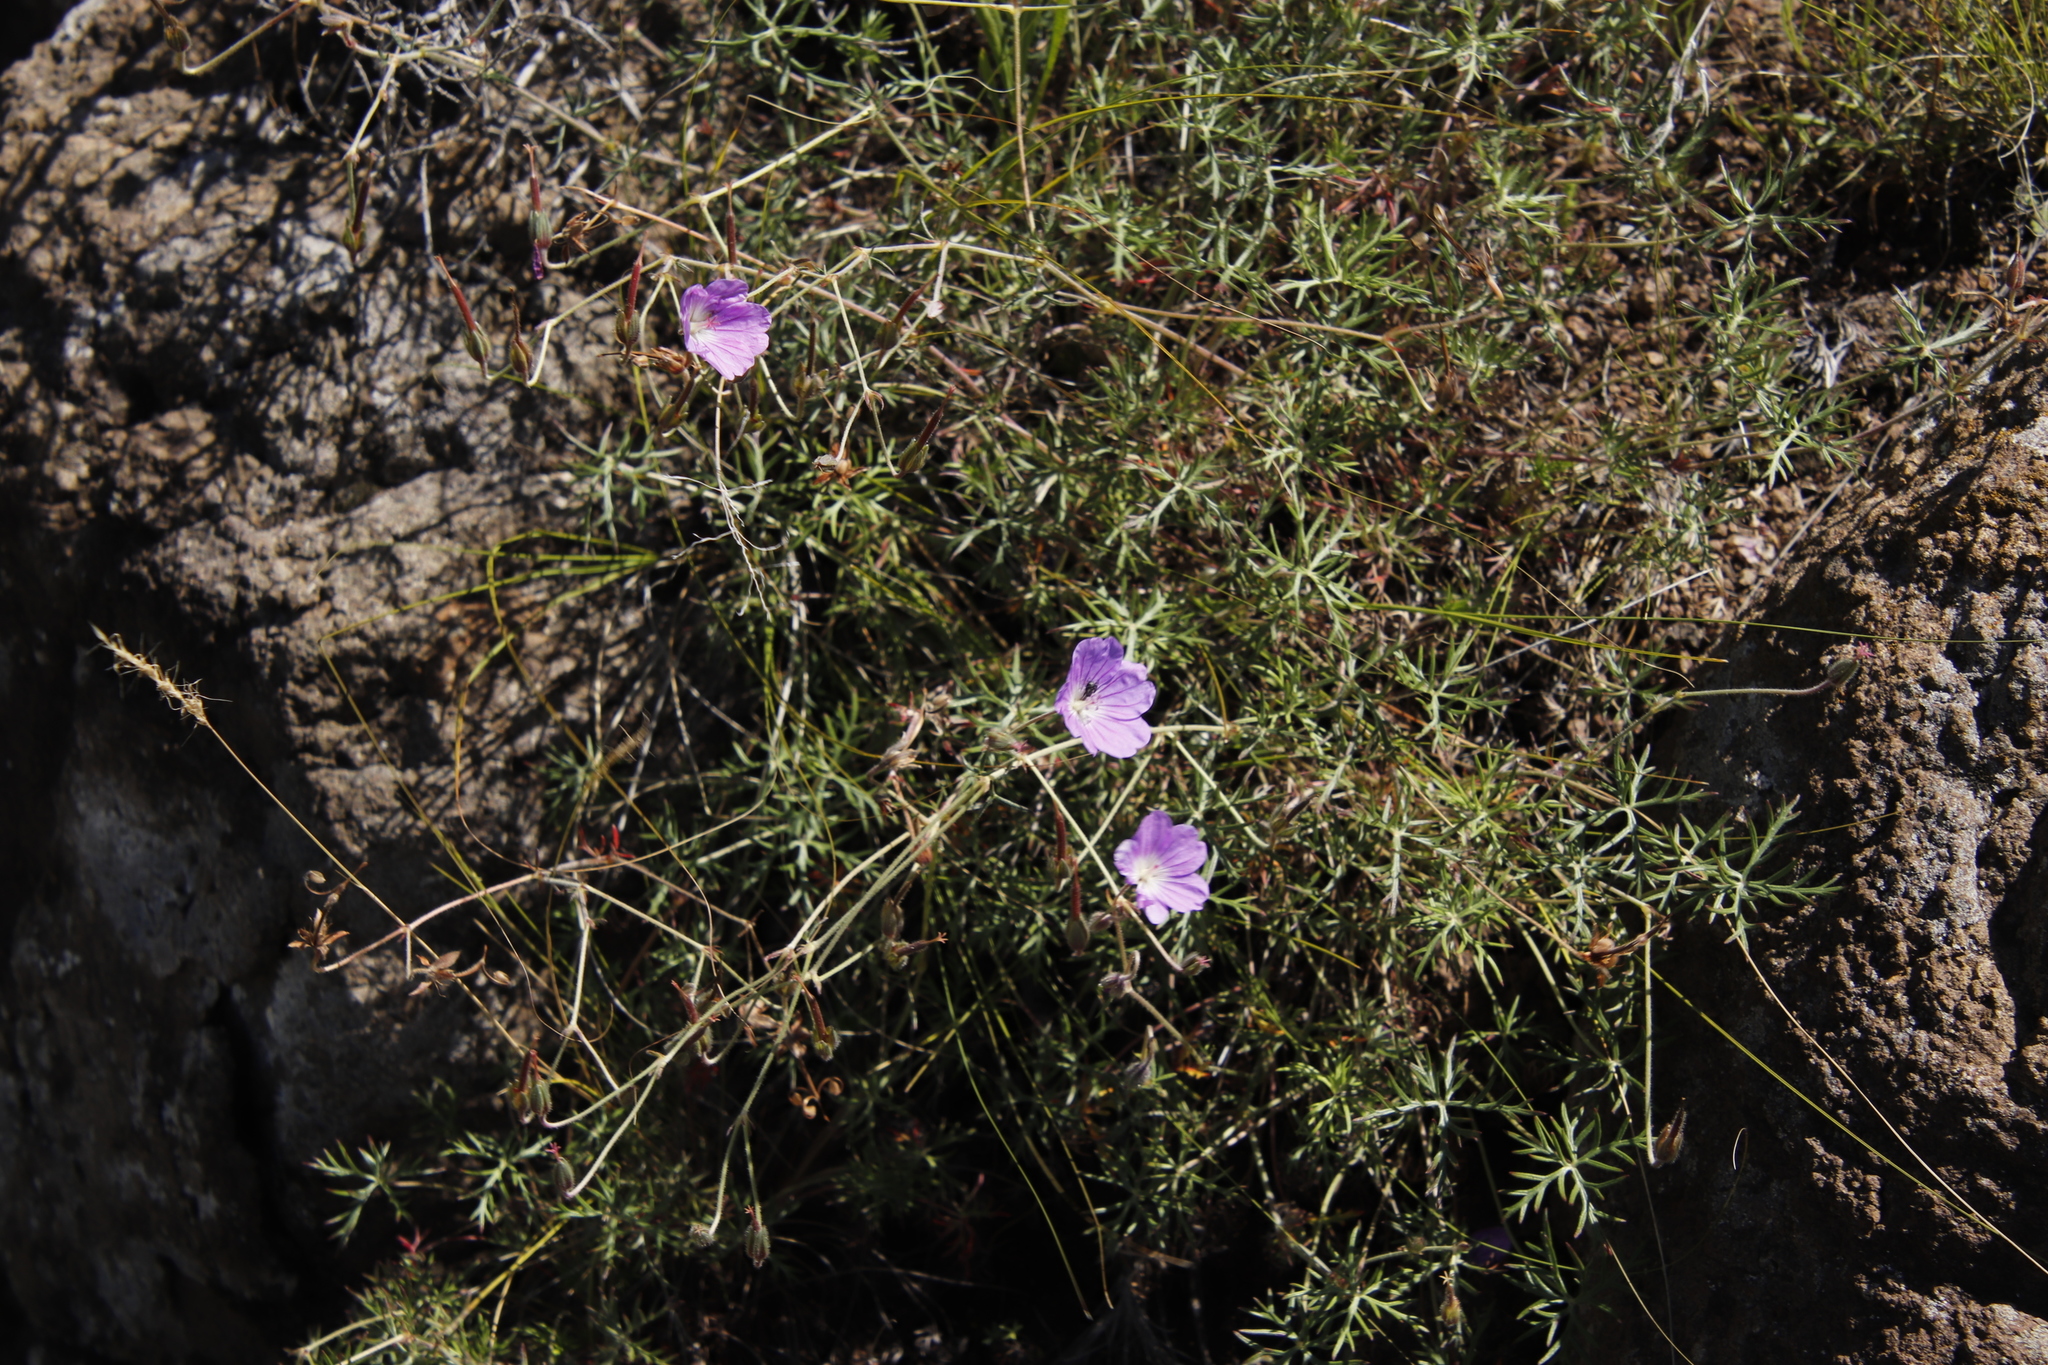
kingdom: Plantae
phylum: Tracheophyta
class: Magnoliopsida
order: Geraniales
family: Geraniaceae
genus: Geranium
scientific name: Geranium magniflorum
